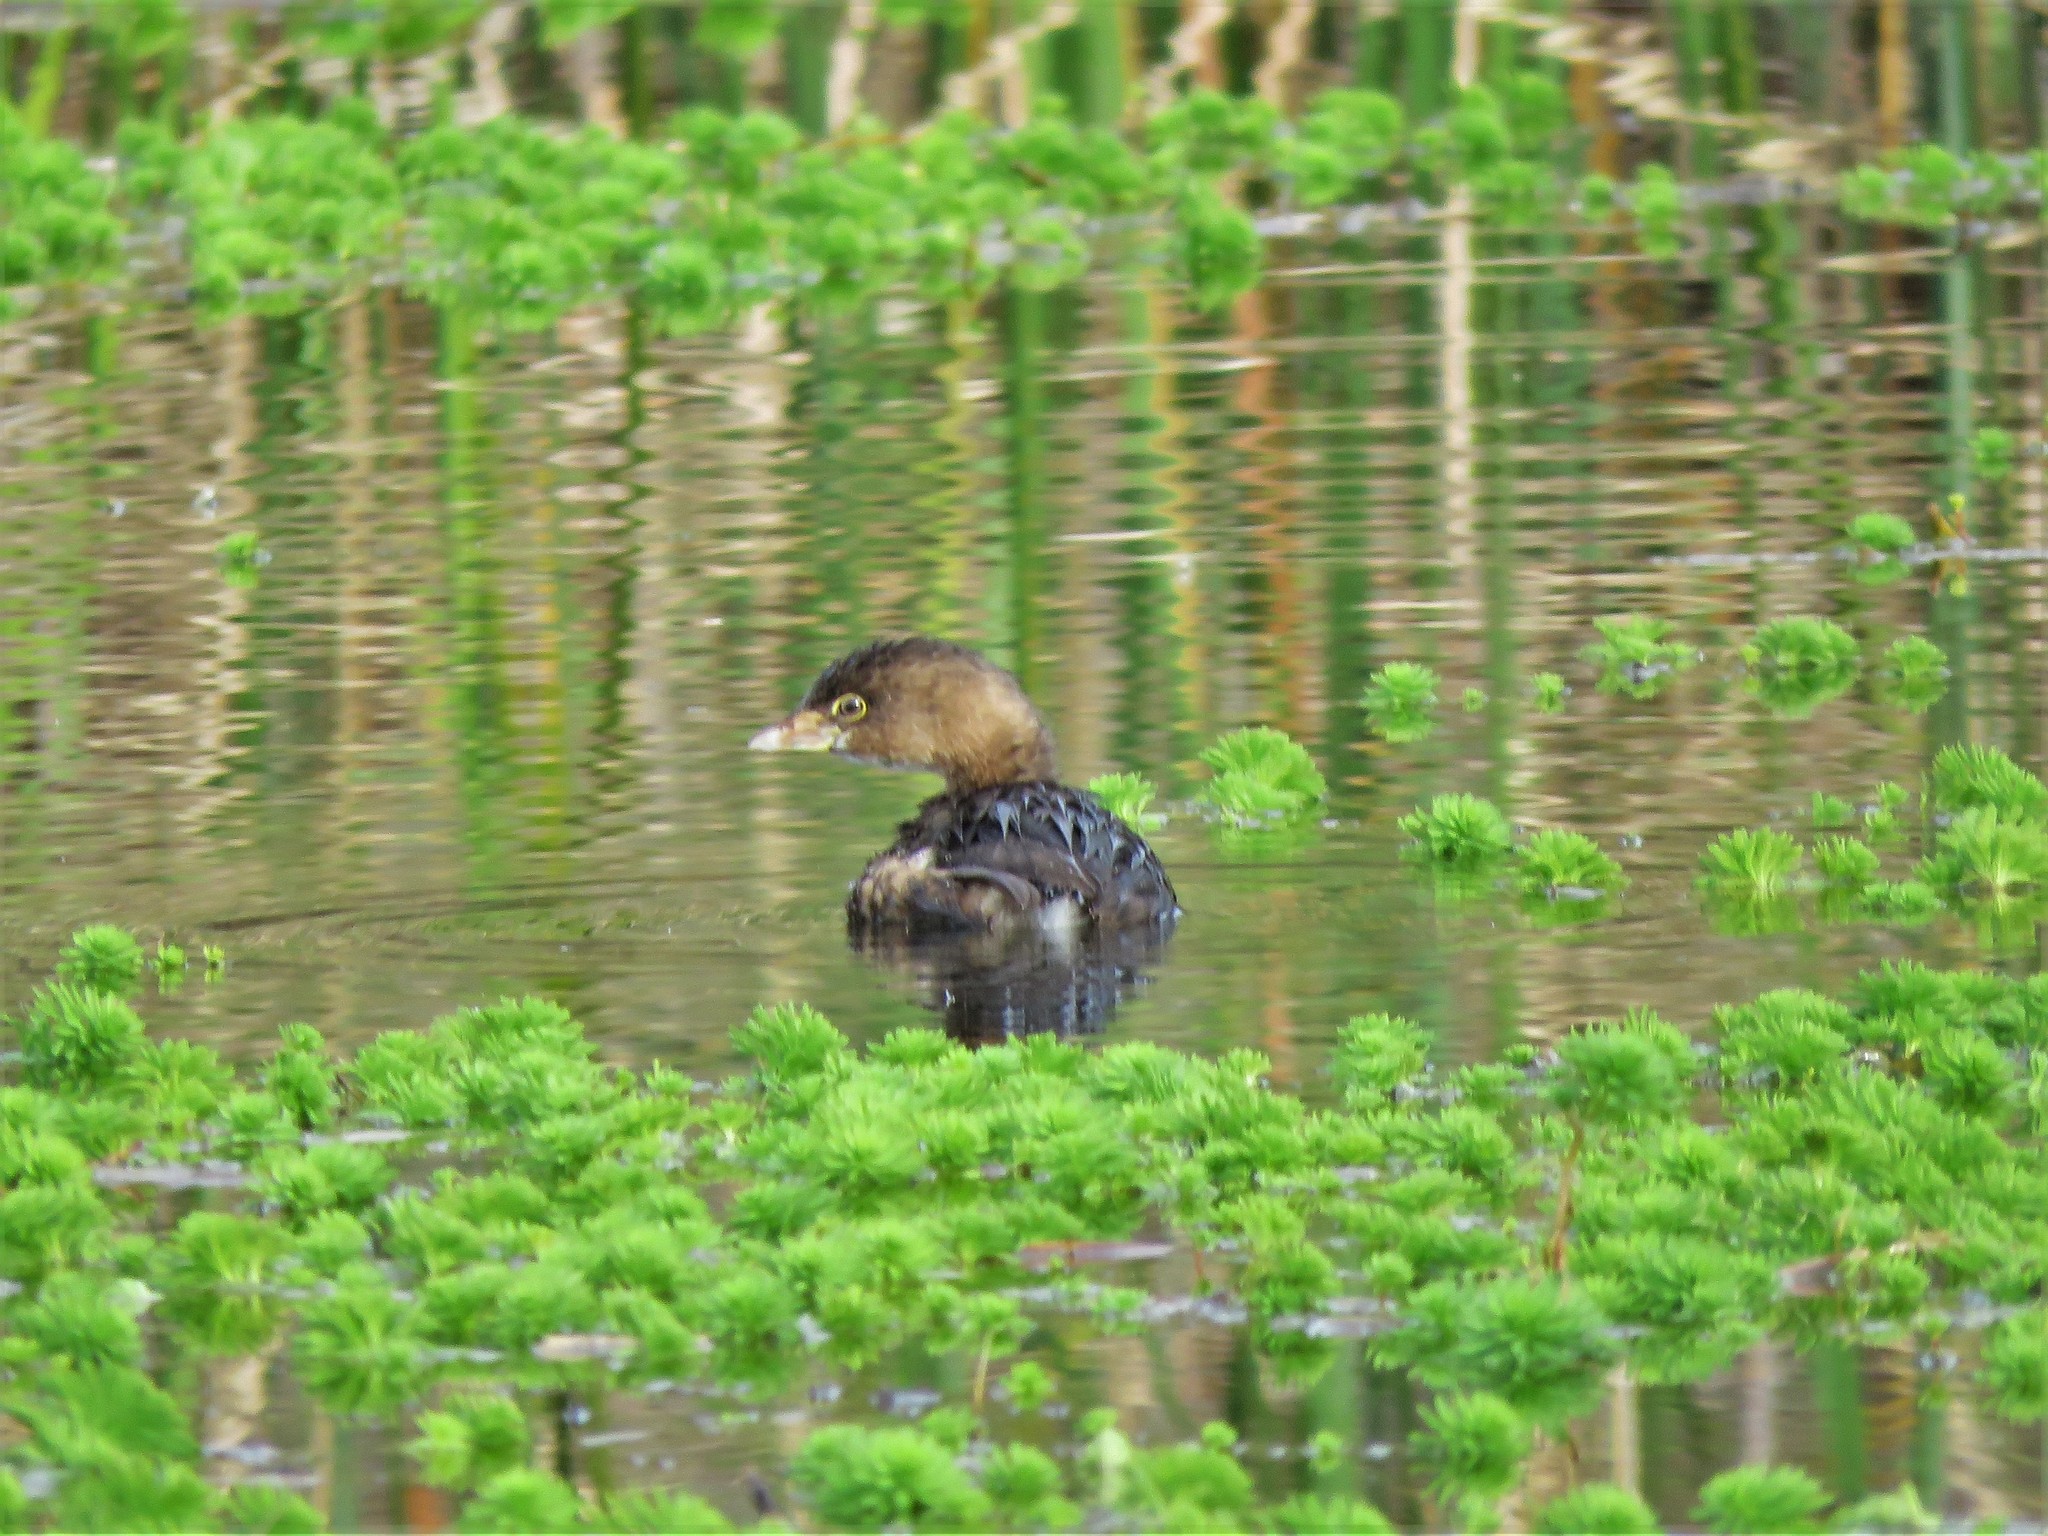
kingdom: Animalia
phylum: Chordata
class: Aves
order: Podicipediformes
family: Podicipedidae
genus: Podilymbus
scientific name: Podilymbus podiceps
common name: Pied-billed grebe
